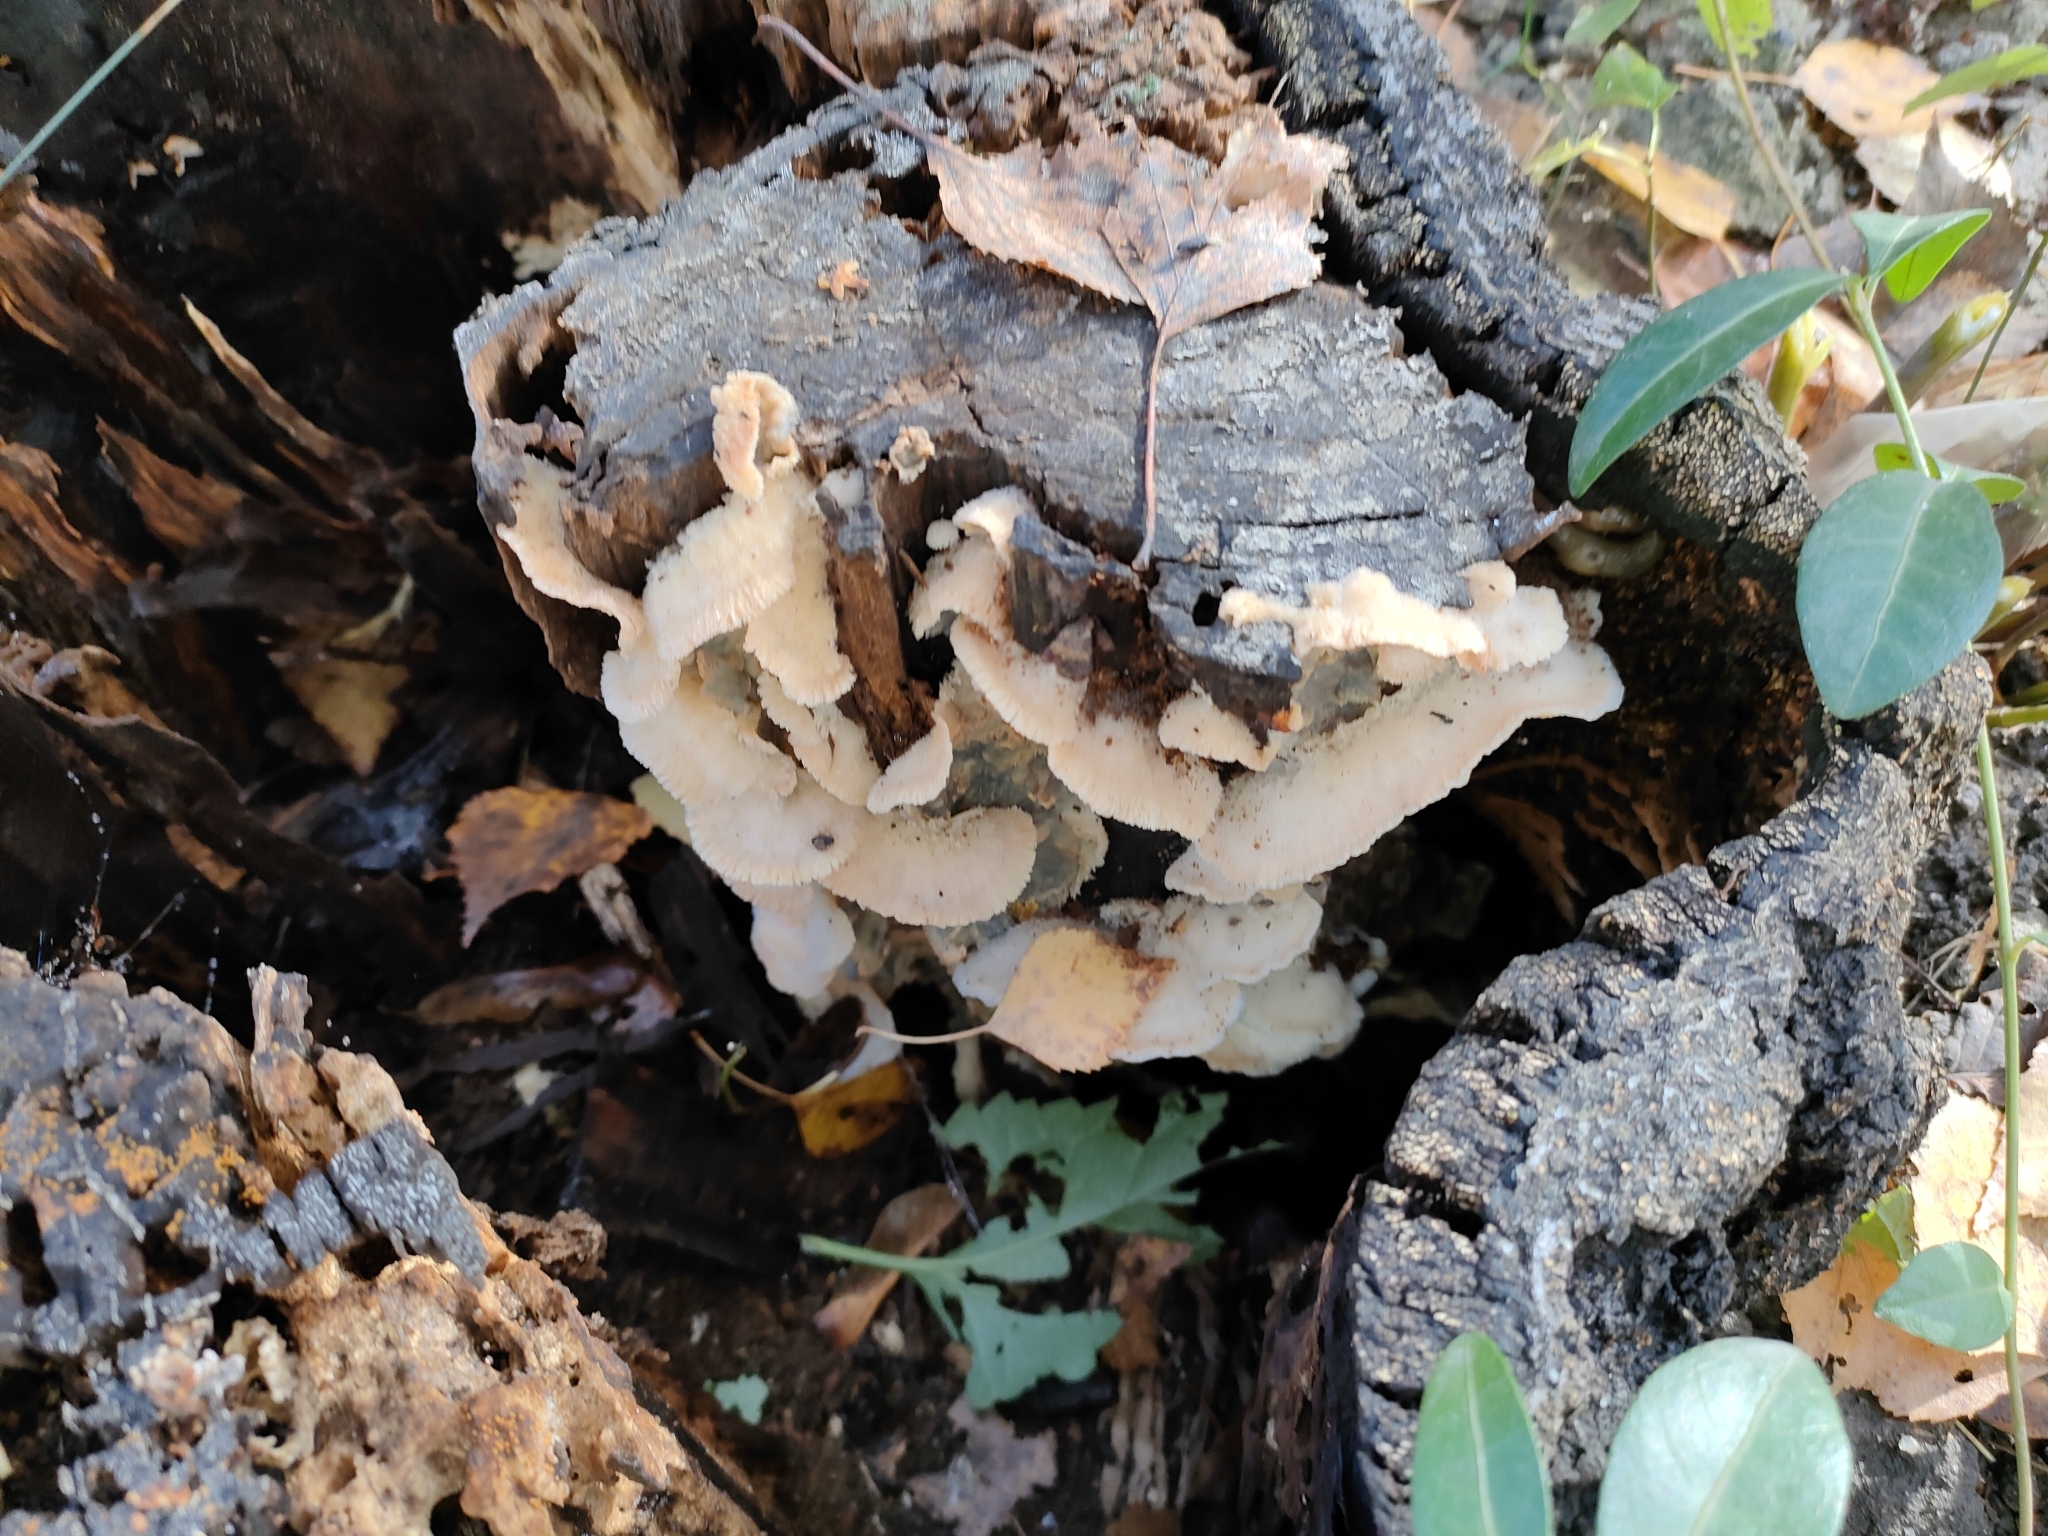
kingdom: Fungi
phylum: Basidiomycota
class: Agaricomycetes
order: Polyporales
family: Meruliaceae
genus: Phlebia
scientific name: Phlebia tremellosa
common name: Jelly rot
